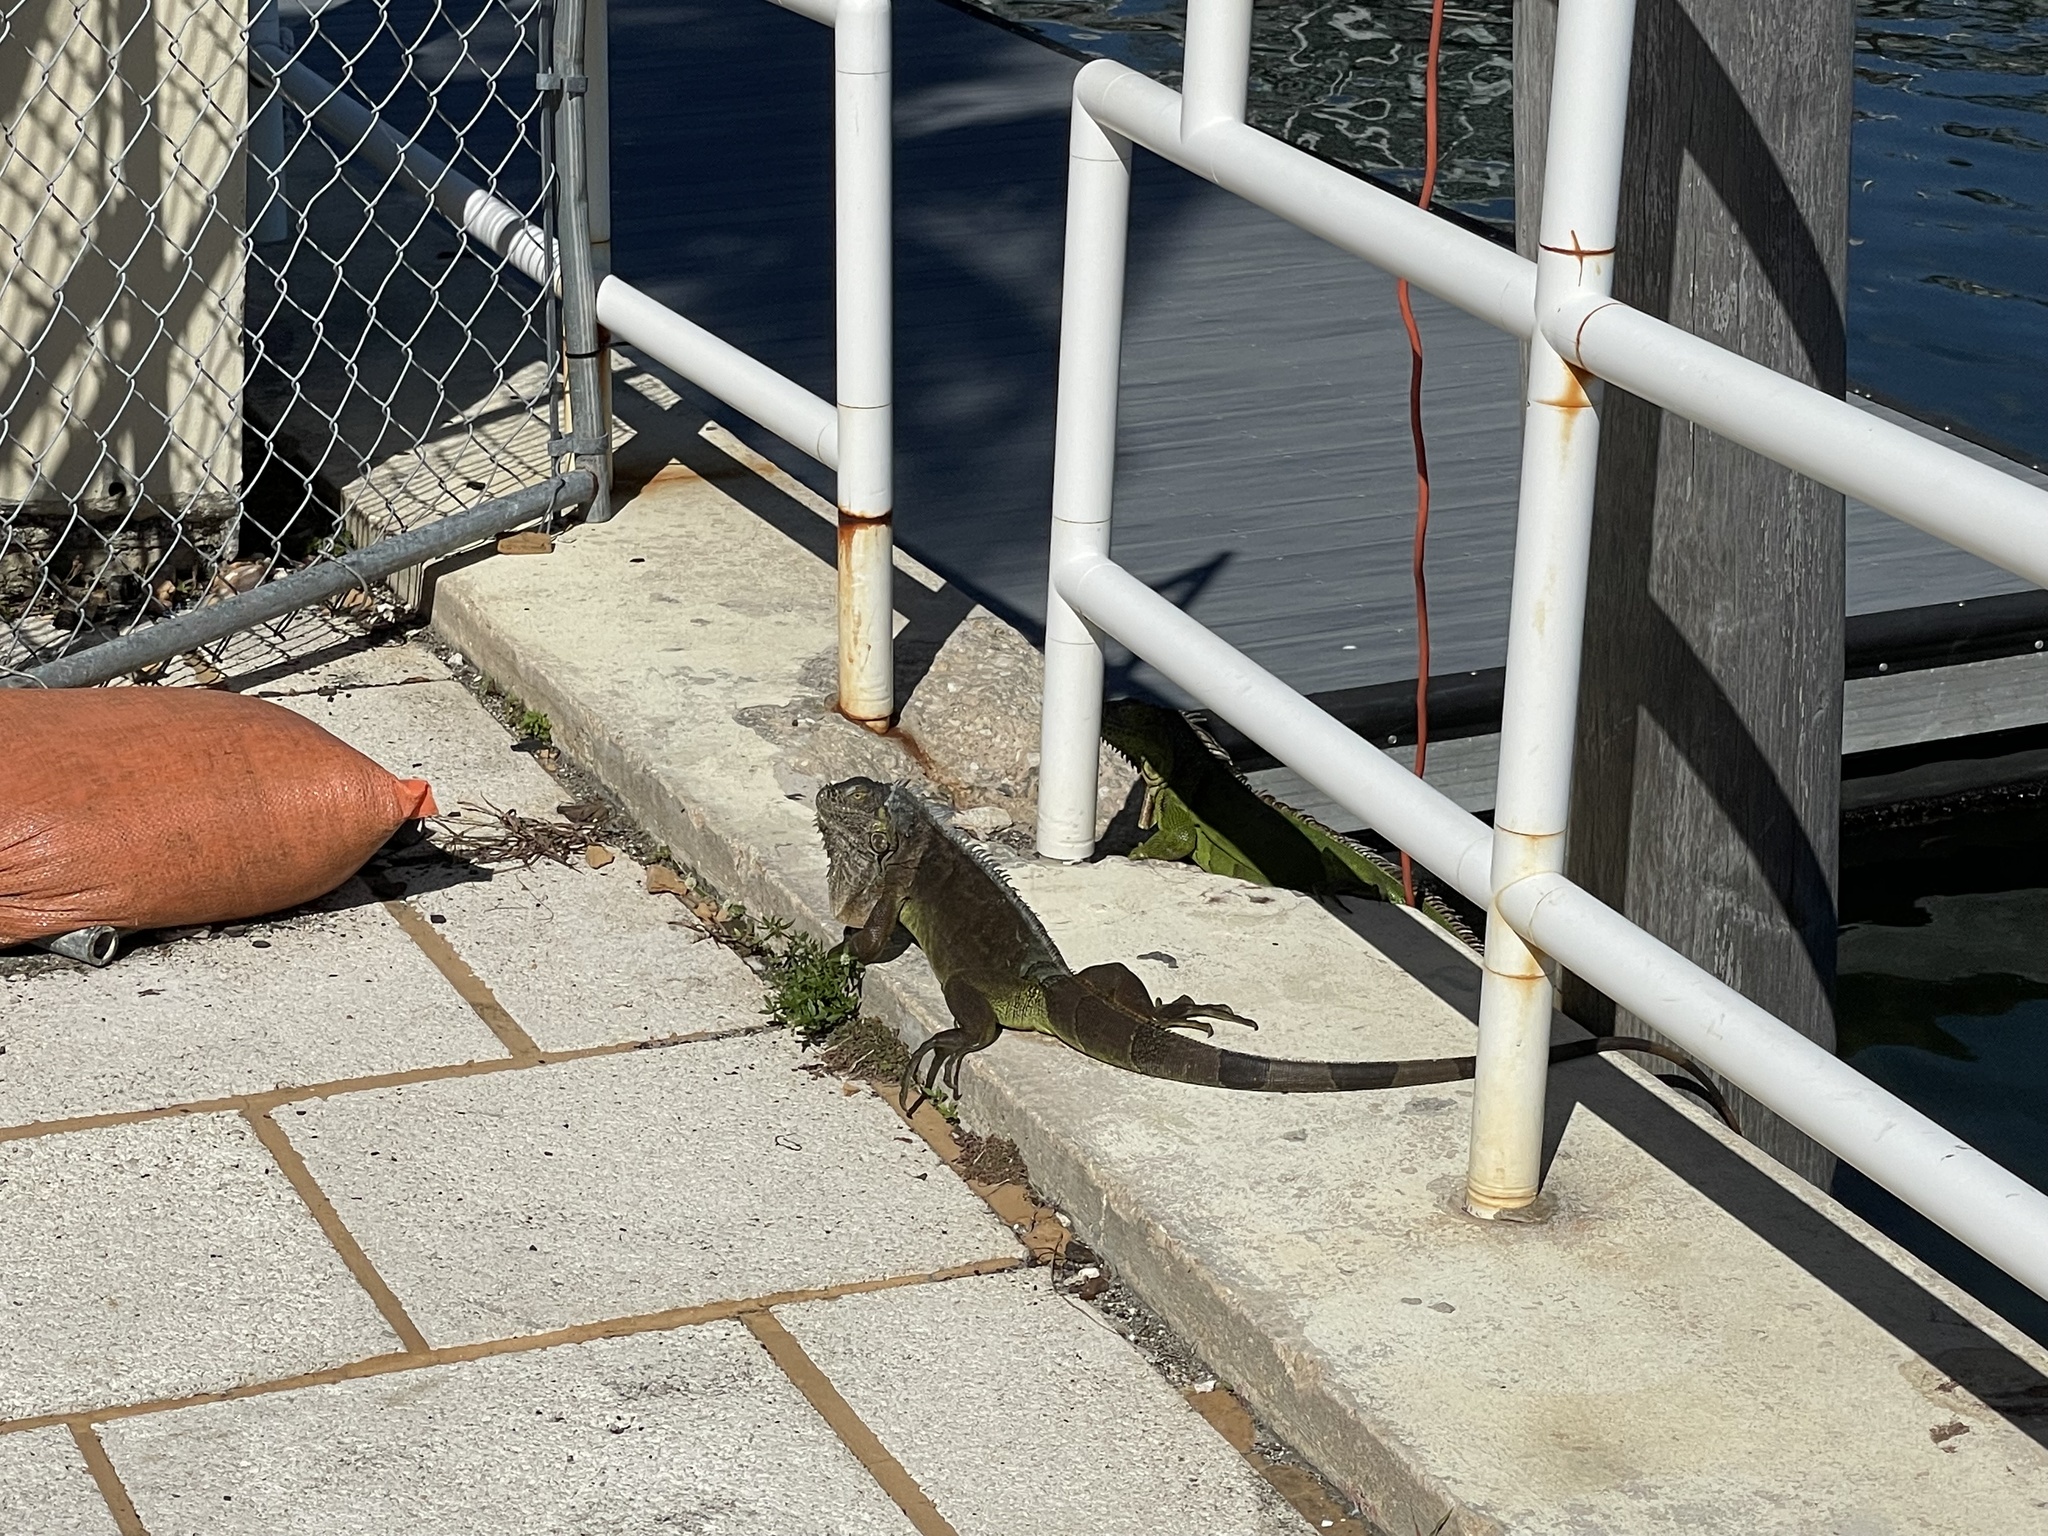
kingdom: Animalia
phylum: Chordata
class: Squamata
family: Iguanidae
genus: Iguana
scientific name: Iguana iguana
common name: Green iguana
